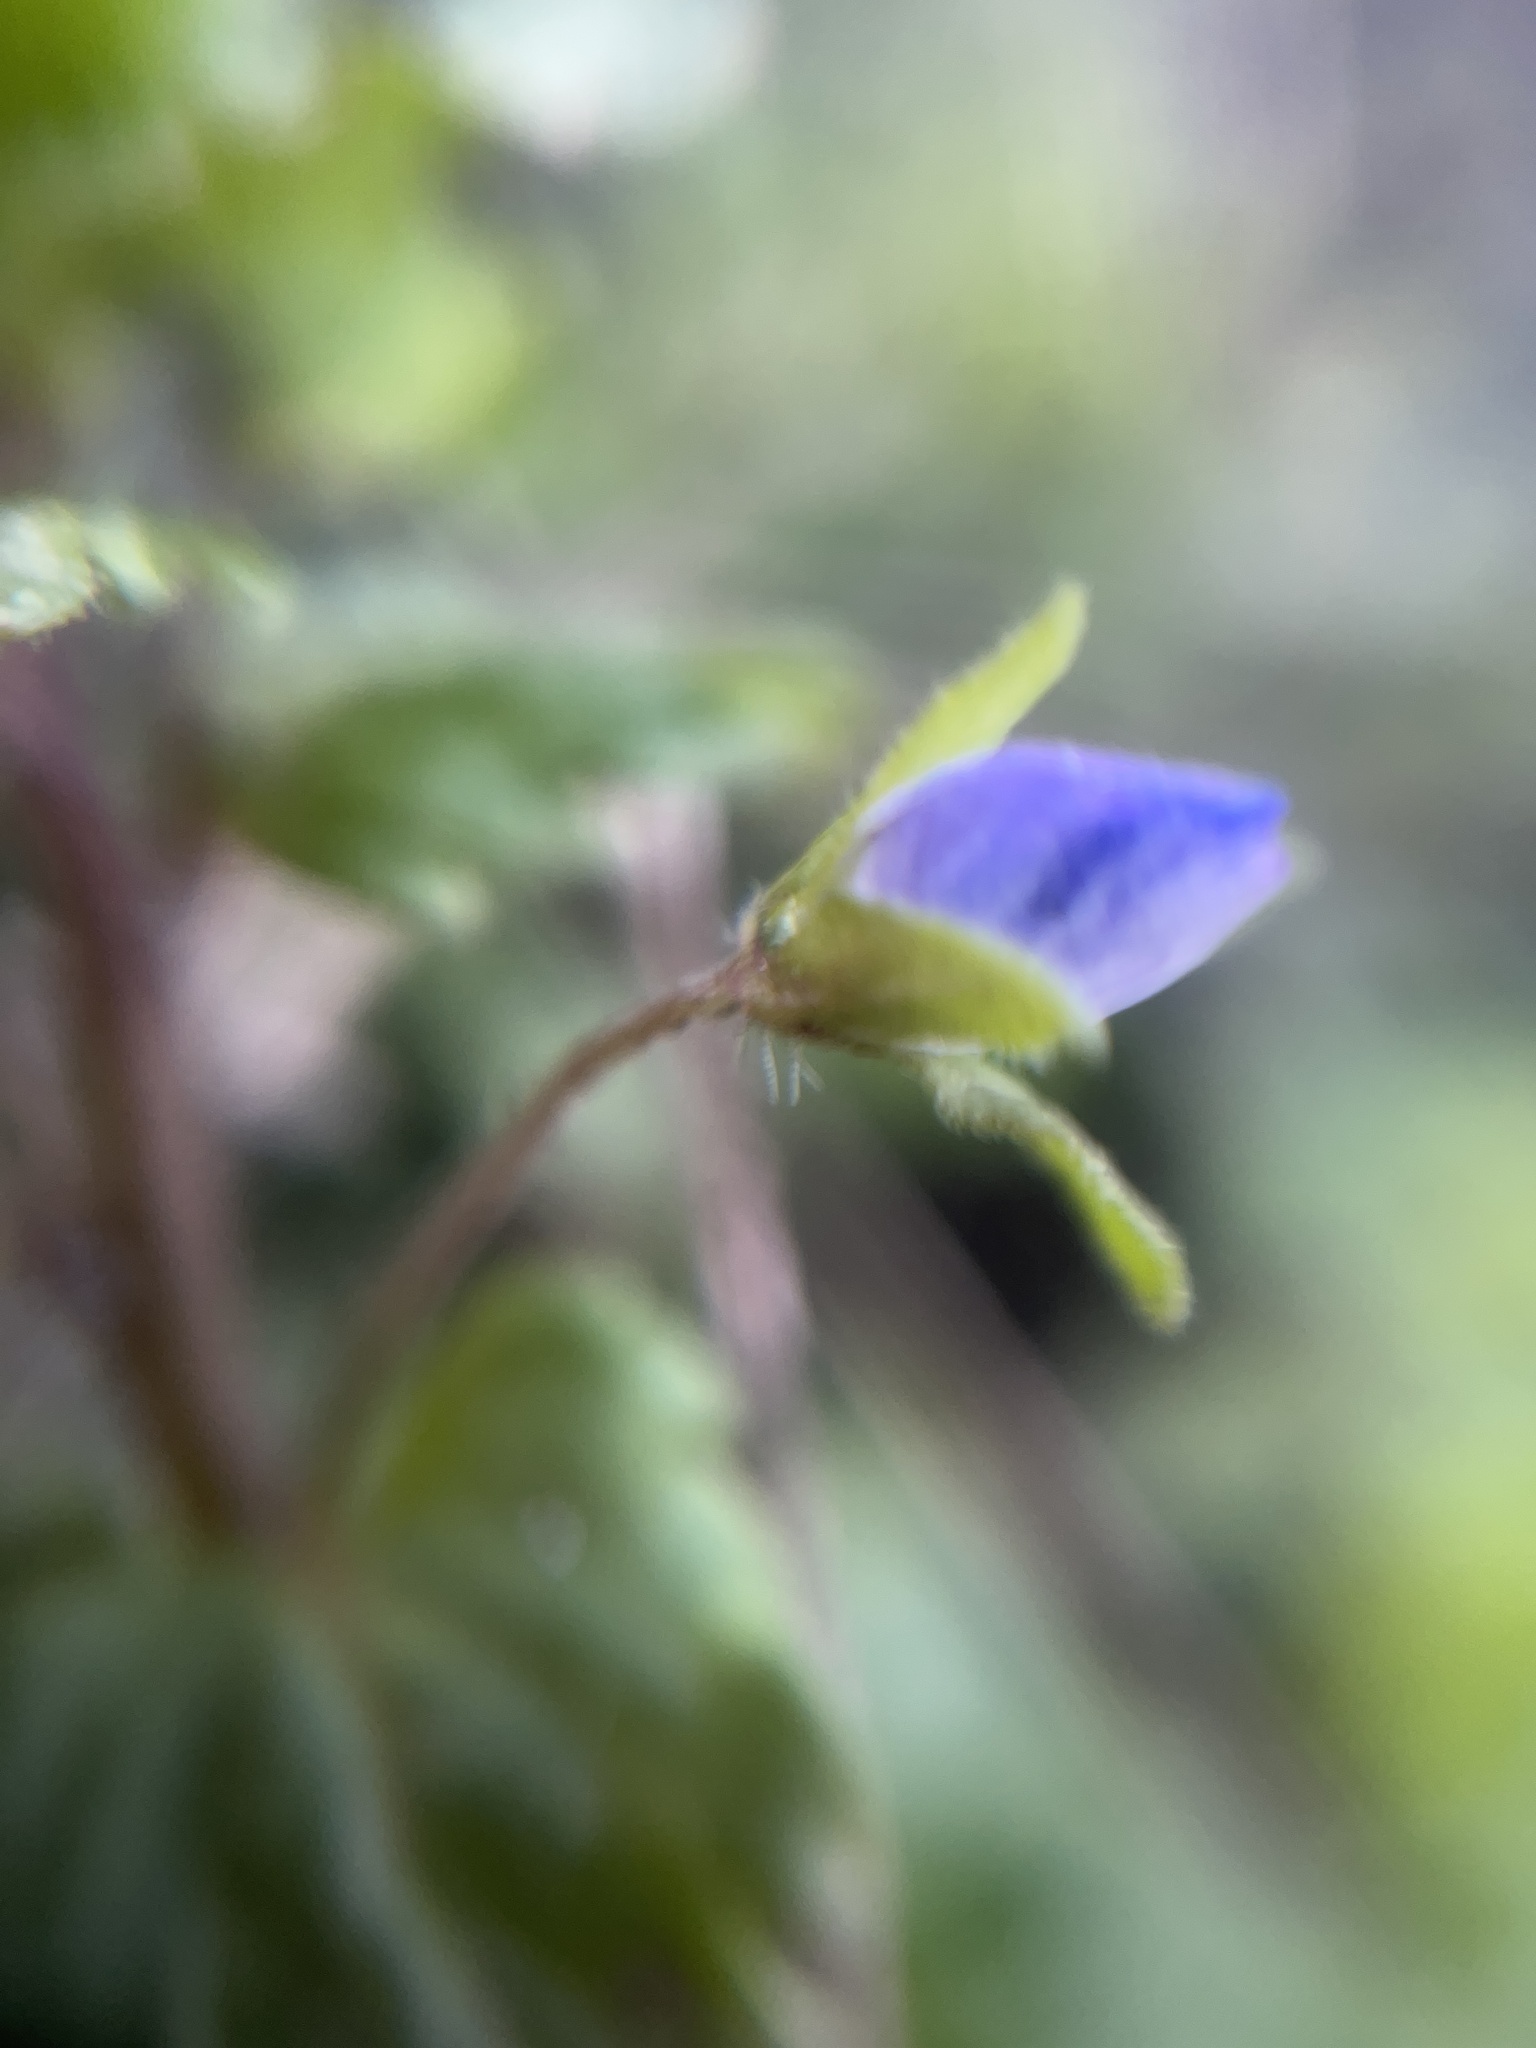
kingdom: Plantae
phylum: Tracheophyta
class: Magnoliopsida
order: Lamiales
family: Plantaginaceae
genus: Veronica
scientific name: Veronica persica
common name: Common field-speedwell
